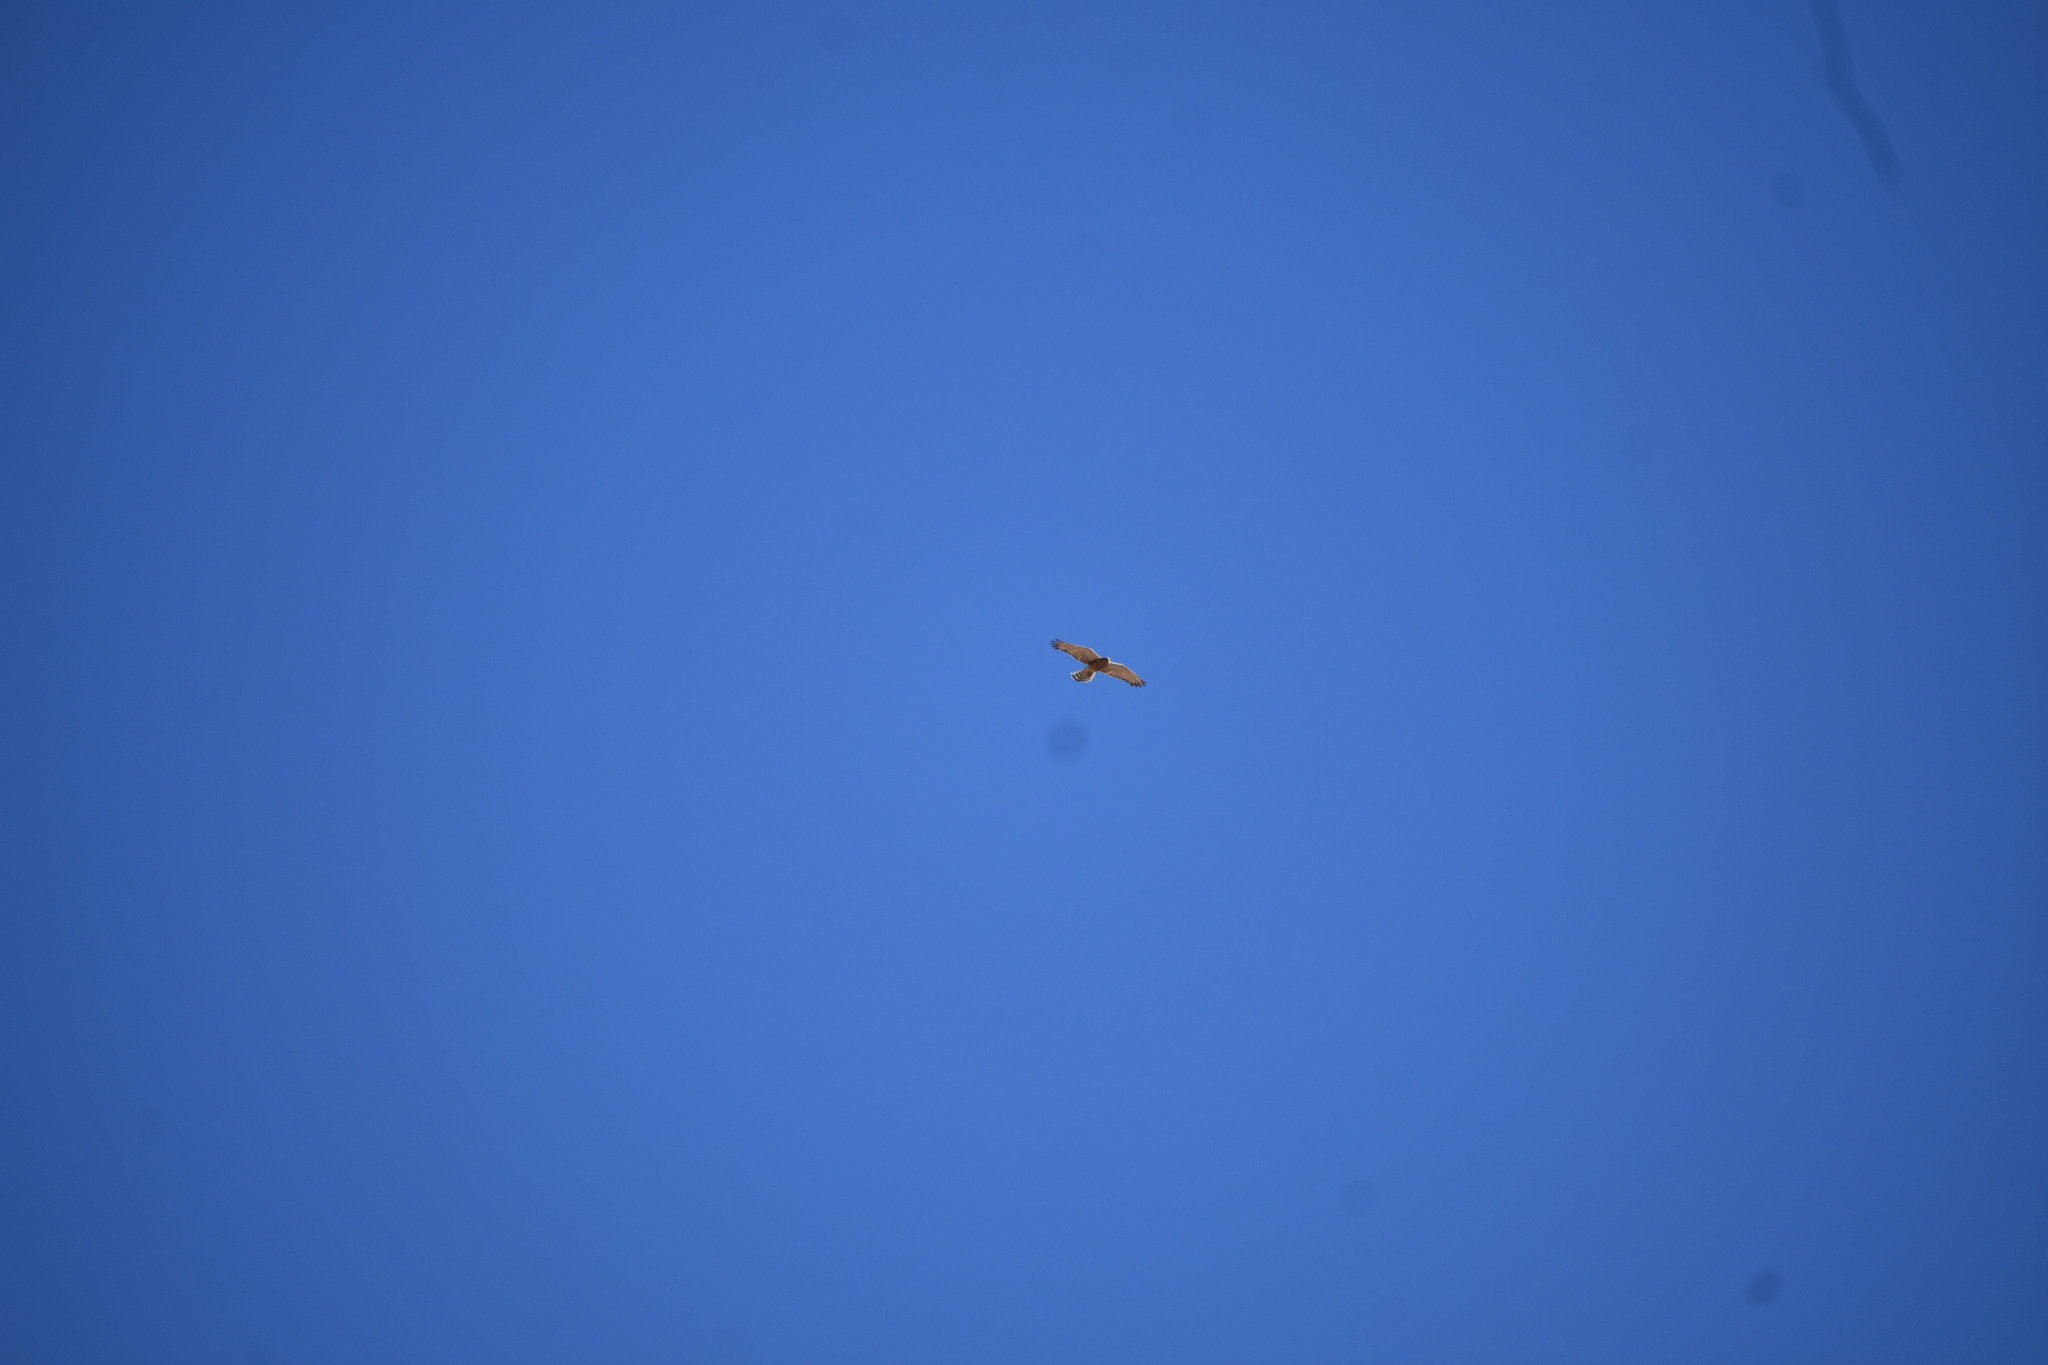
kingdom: Animalia
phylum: Chordata
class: Aves
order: Falconiformes
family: Falconidae
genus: Falco
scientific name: Falco rupicoloides
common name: Greater kestrel
